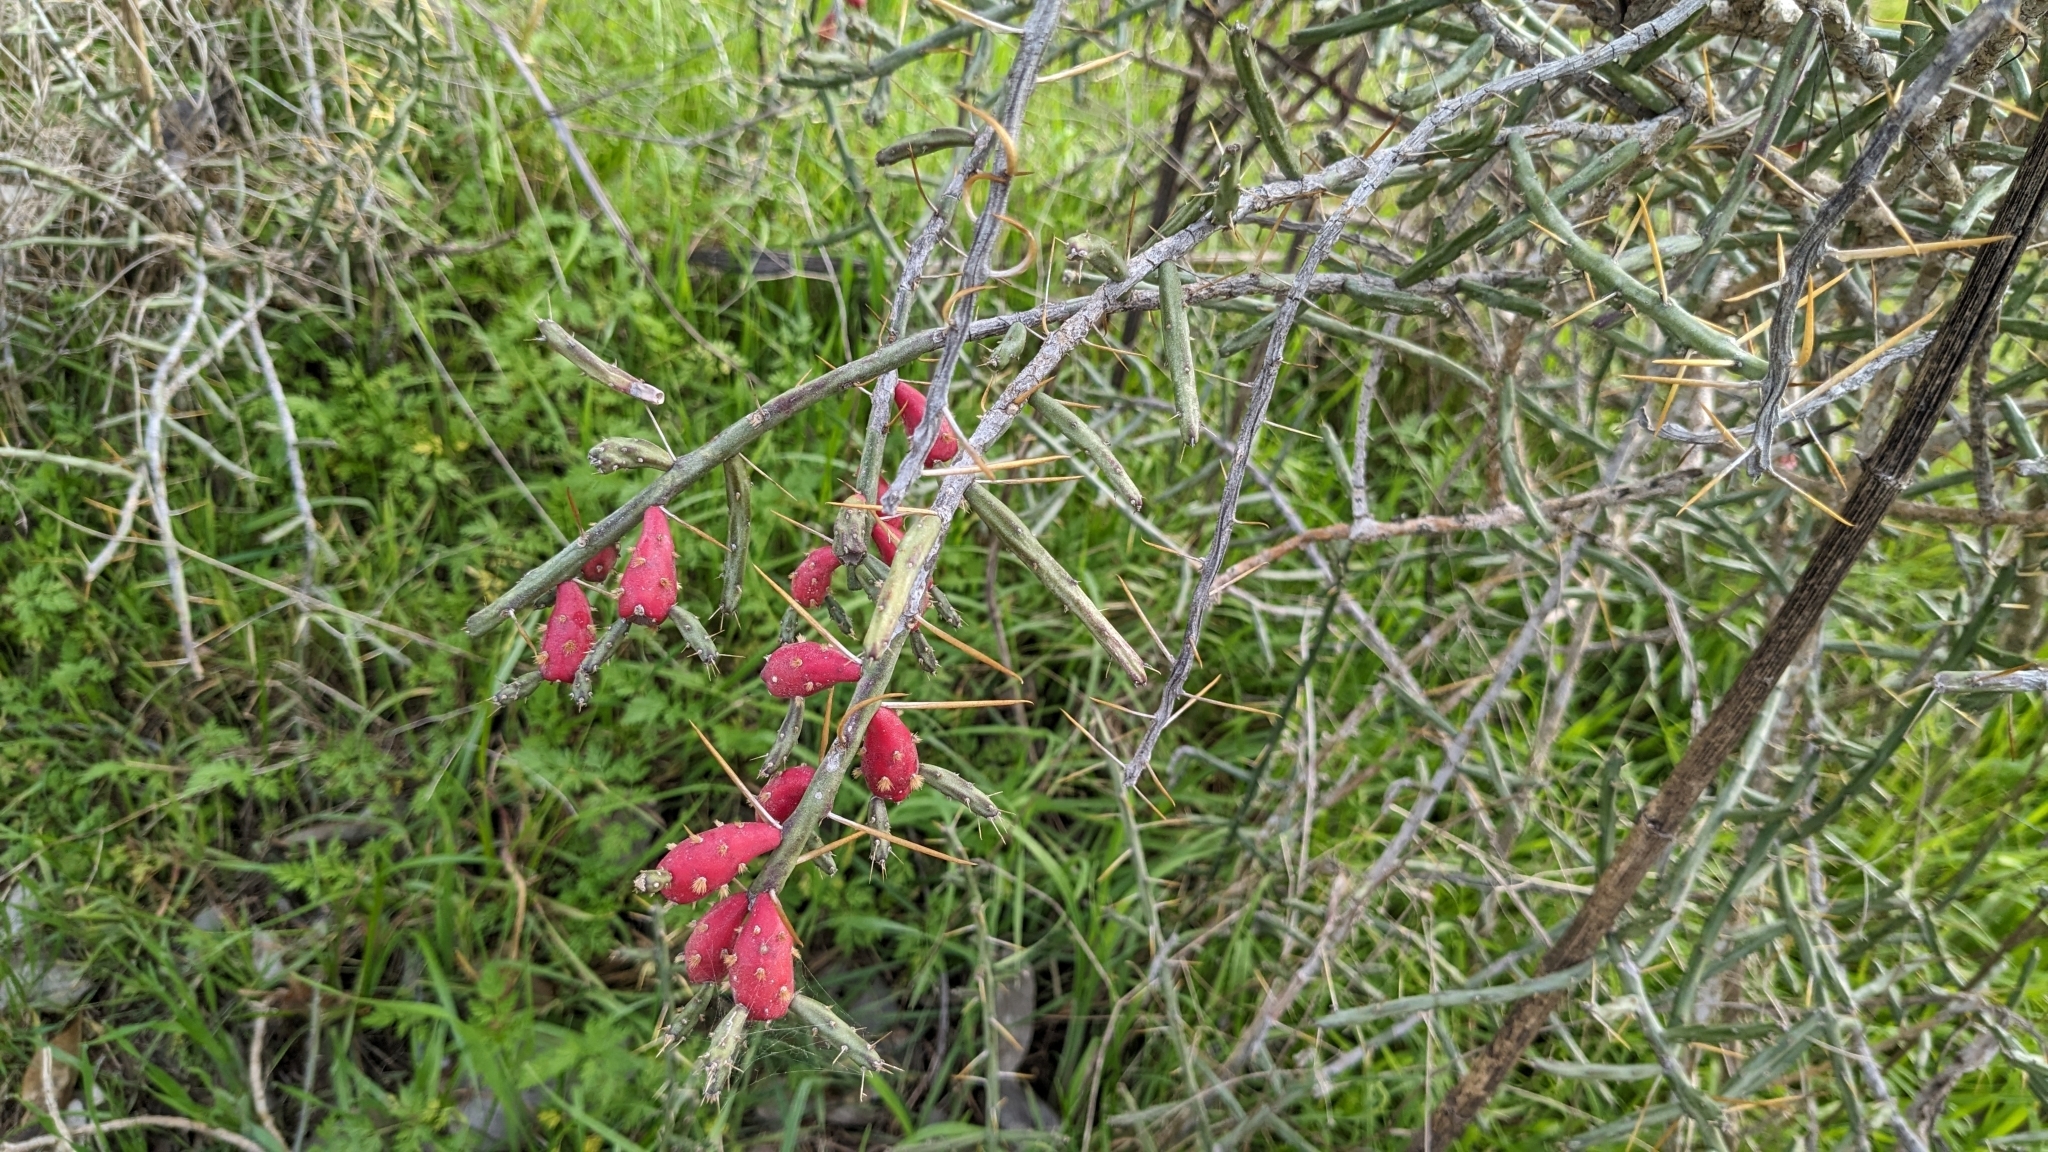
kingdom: Plantae
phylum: Tracheophyta
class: Magnoliopsida
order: Caryophyllales
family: Cactaceae
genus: Cylindropuntia
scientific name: Cylindropuntia leptocaulis
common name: Christmas cactus
